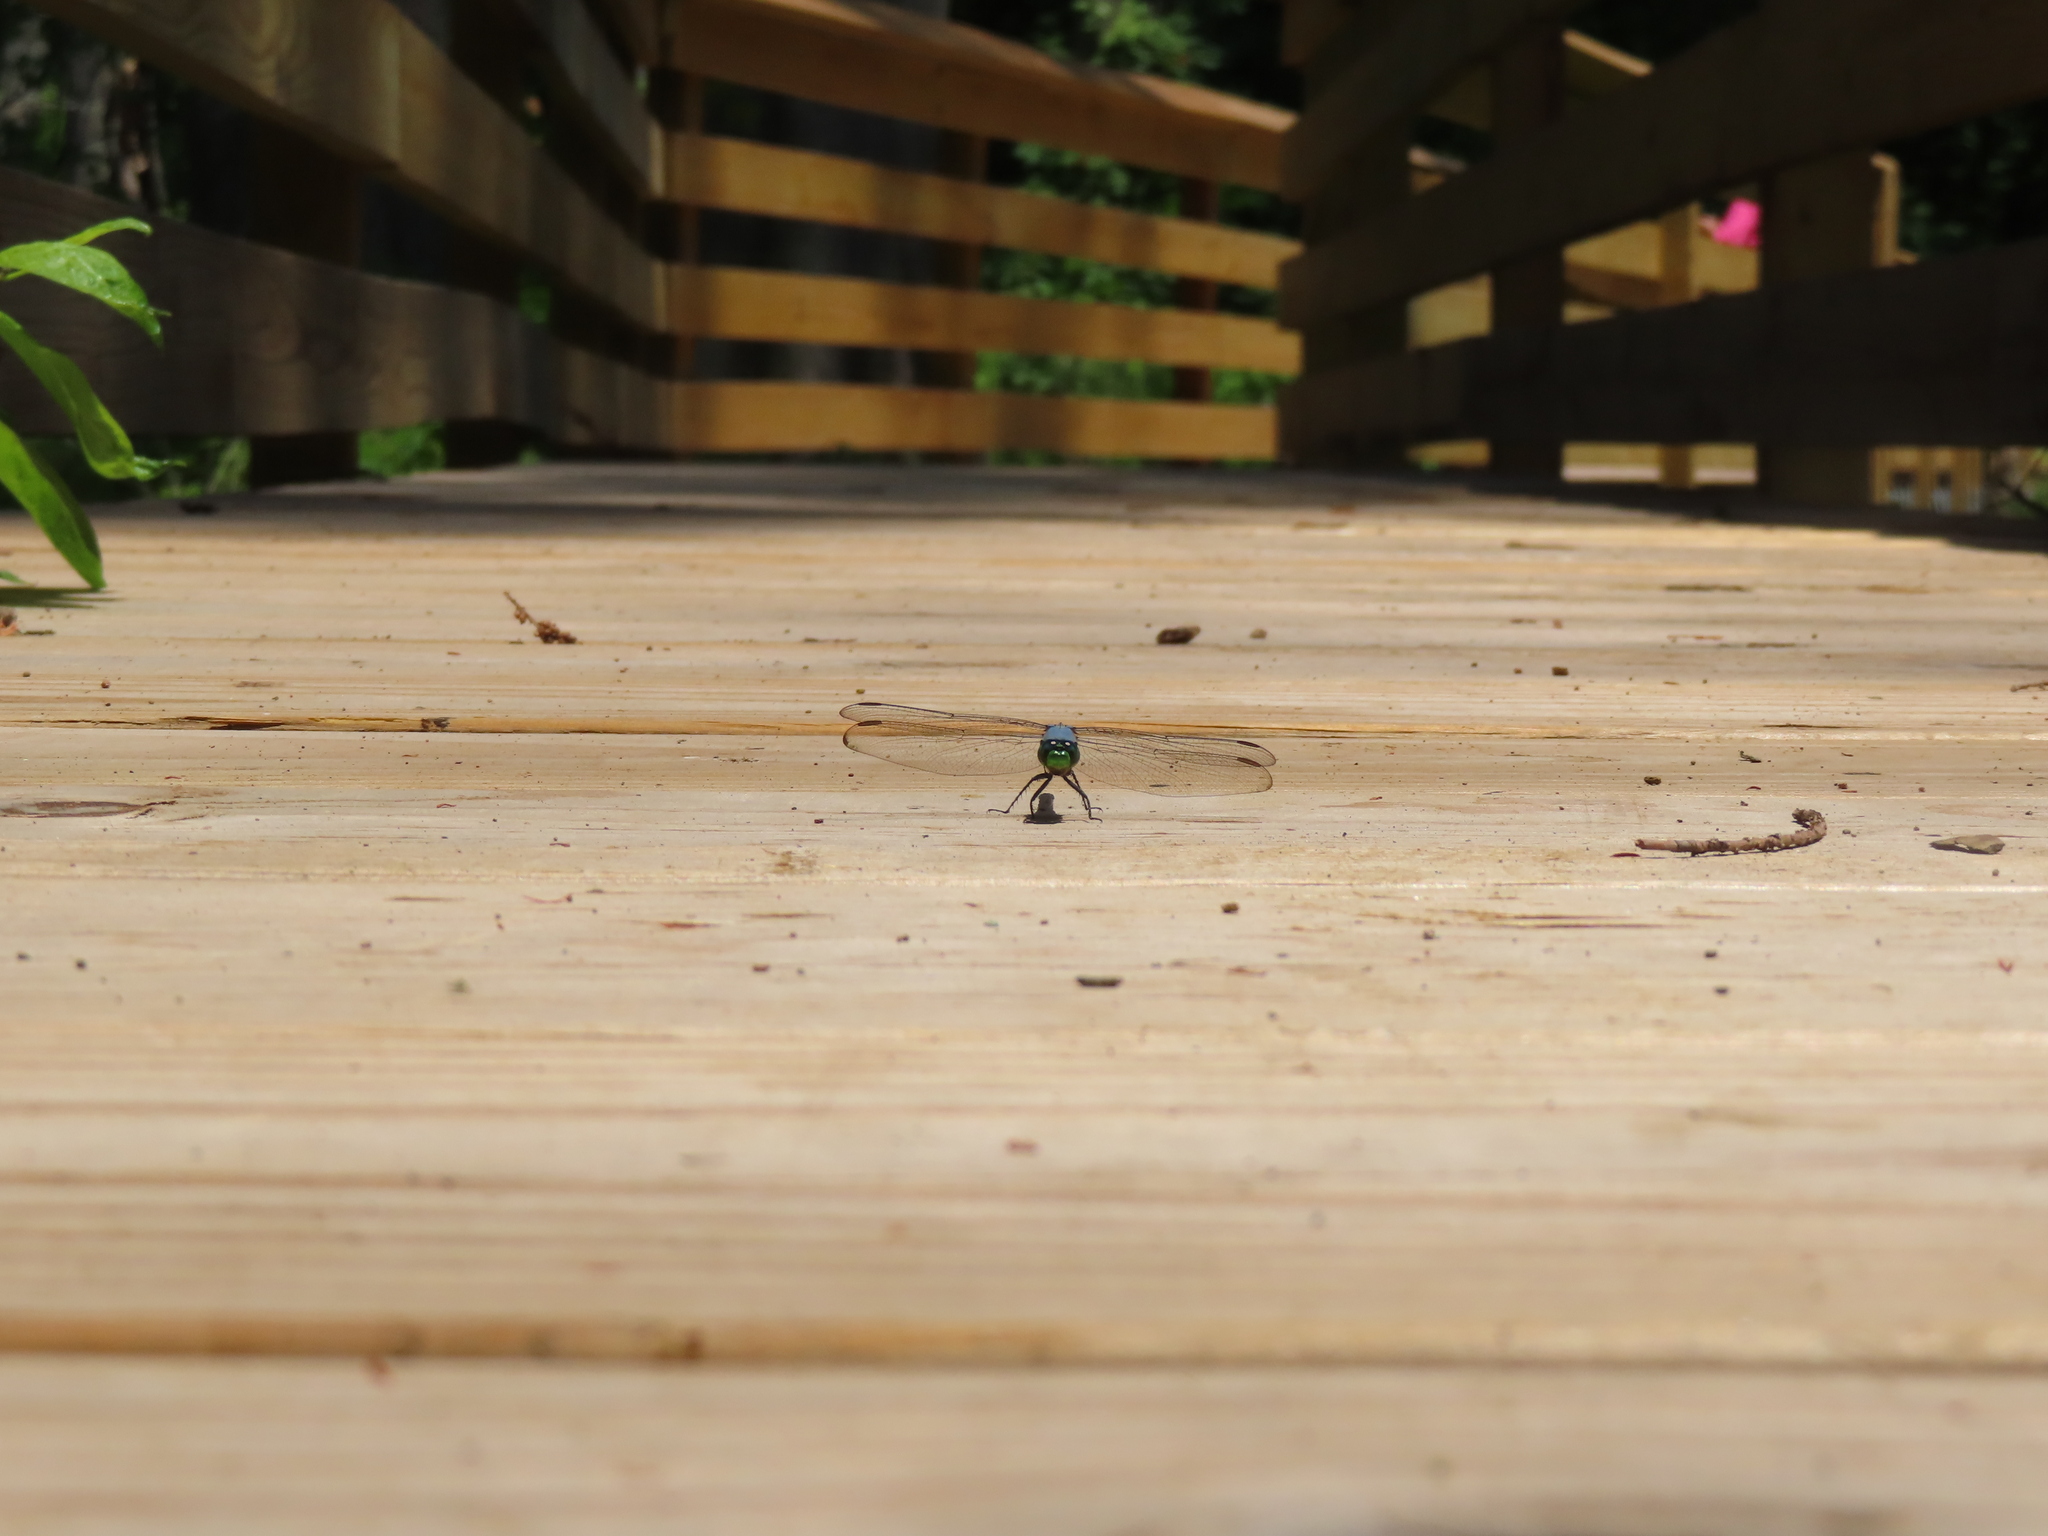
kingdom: Animalia
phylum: Arthropoda
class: Insecta
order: Odonata
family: Libellulidae
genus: Erythemis
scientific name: Erythemis simplicicollis
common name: Eastern pondhawk
